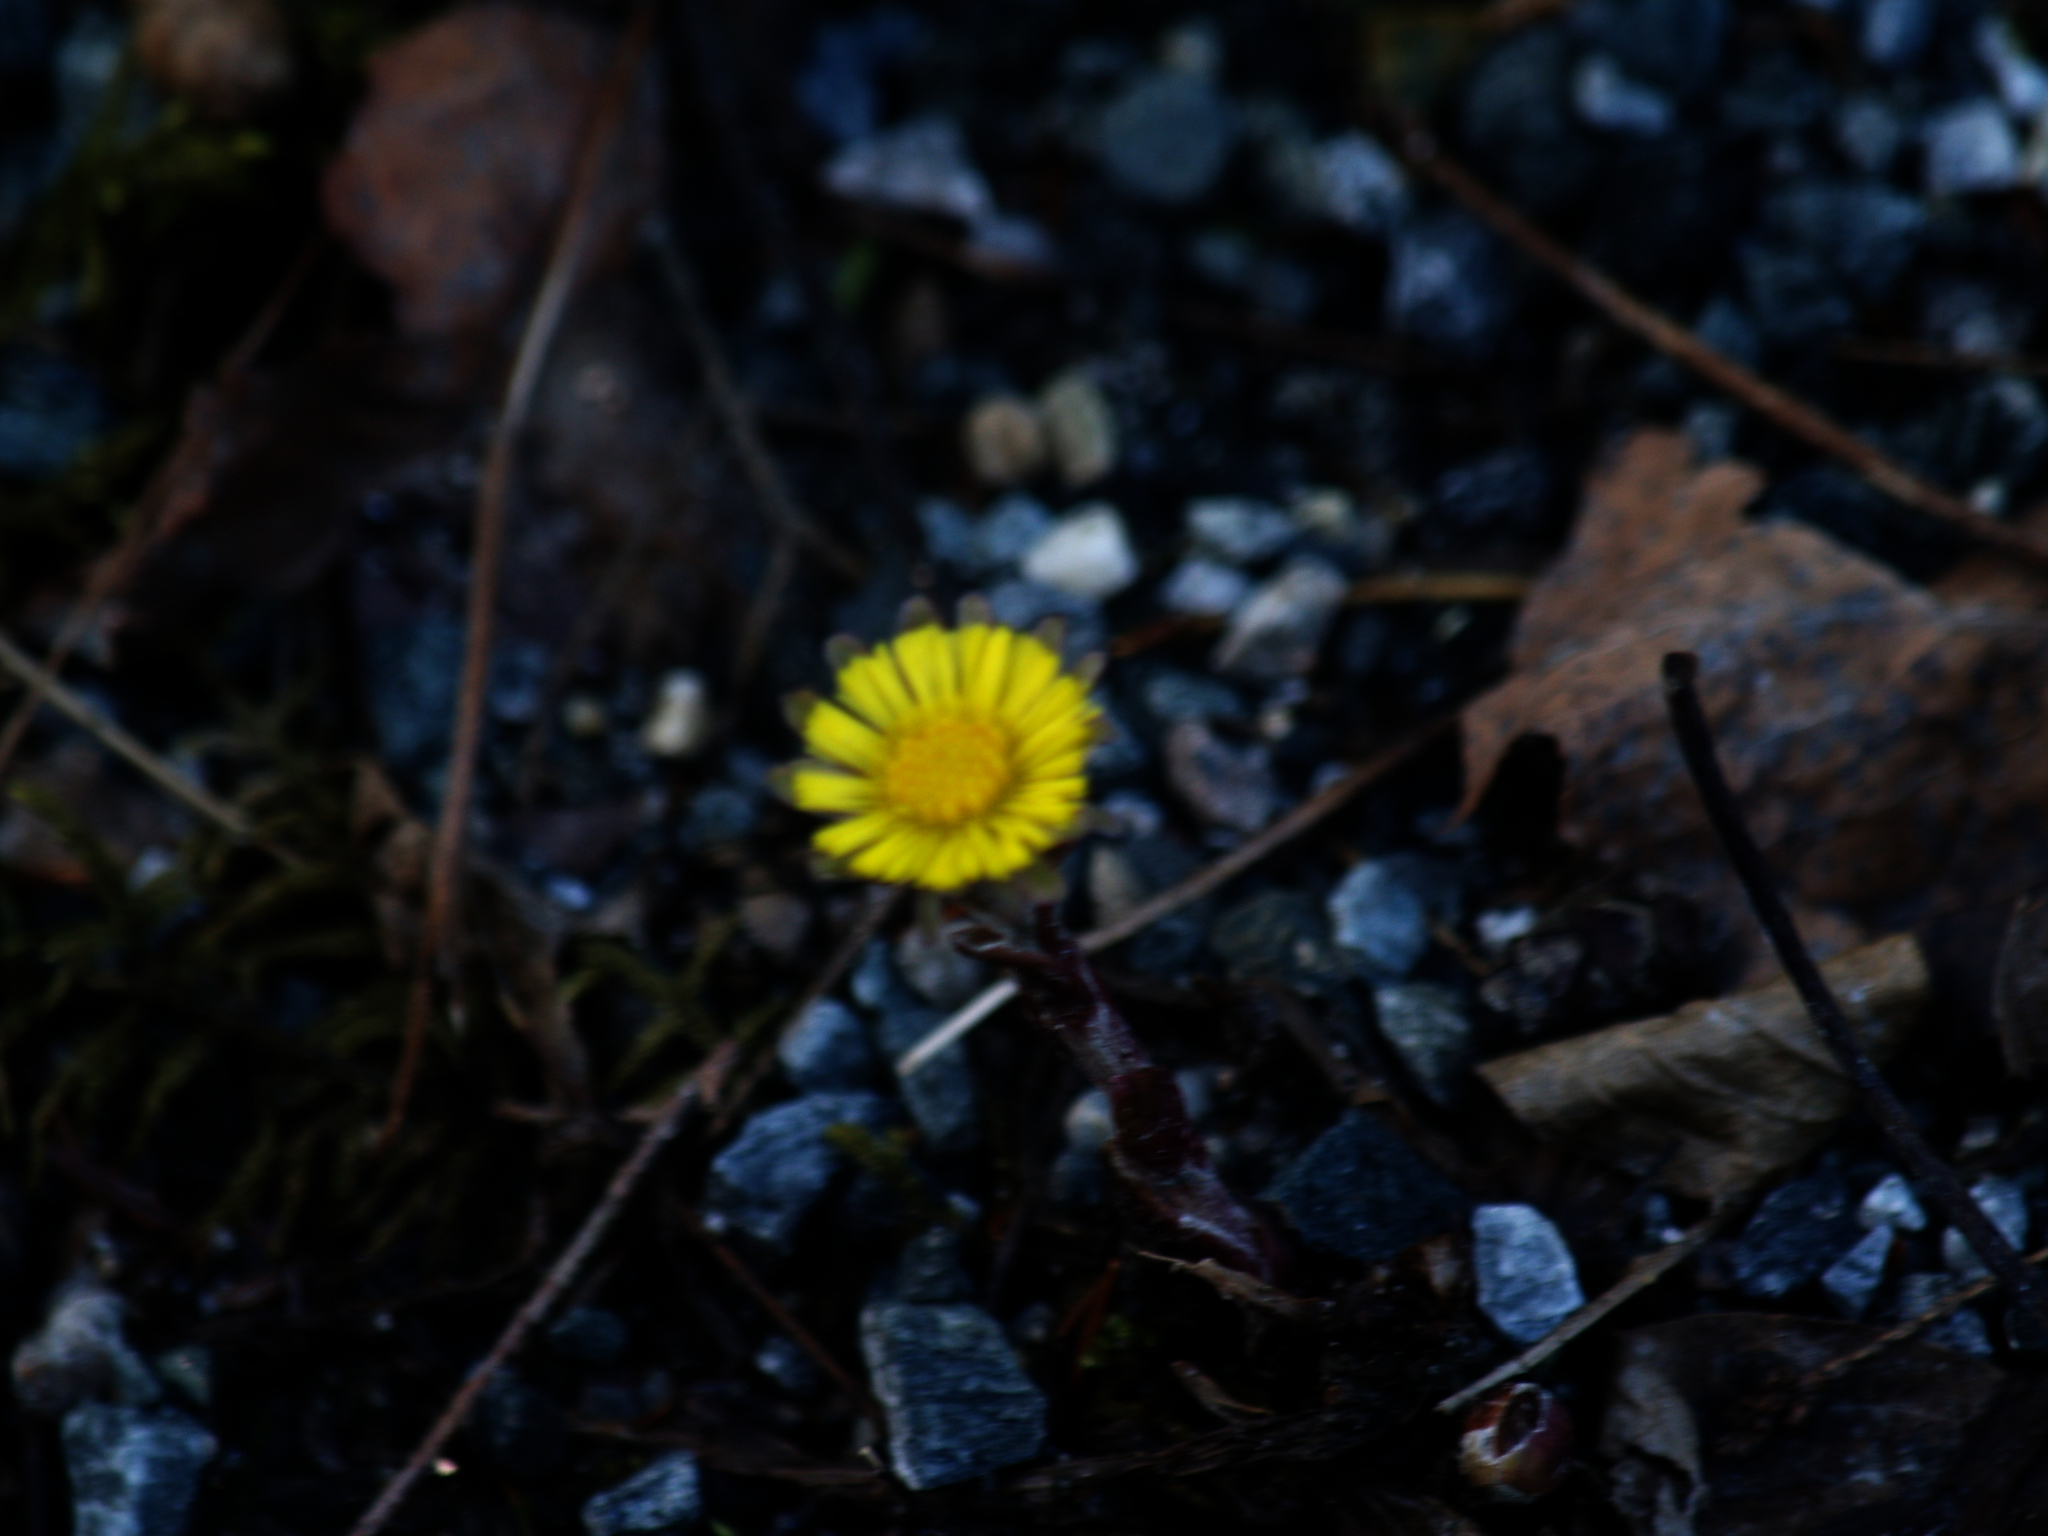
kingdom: Plantae
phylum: Tracheophyta
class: Magnoliopsida
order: Asterales
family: Asteraceae
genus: Tussilago
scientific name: Tussilago farfara
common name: Coltsfoot
